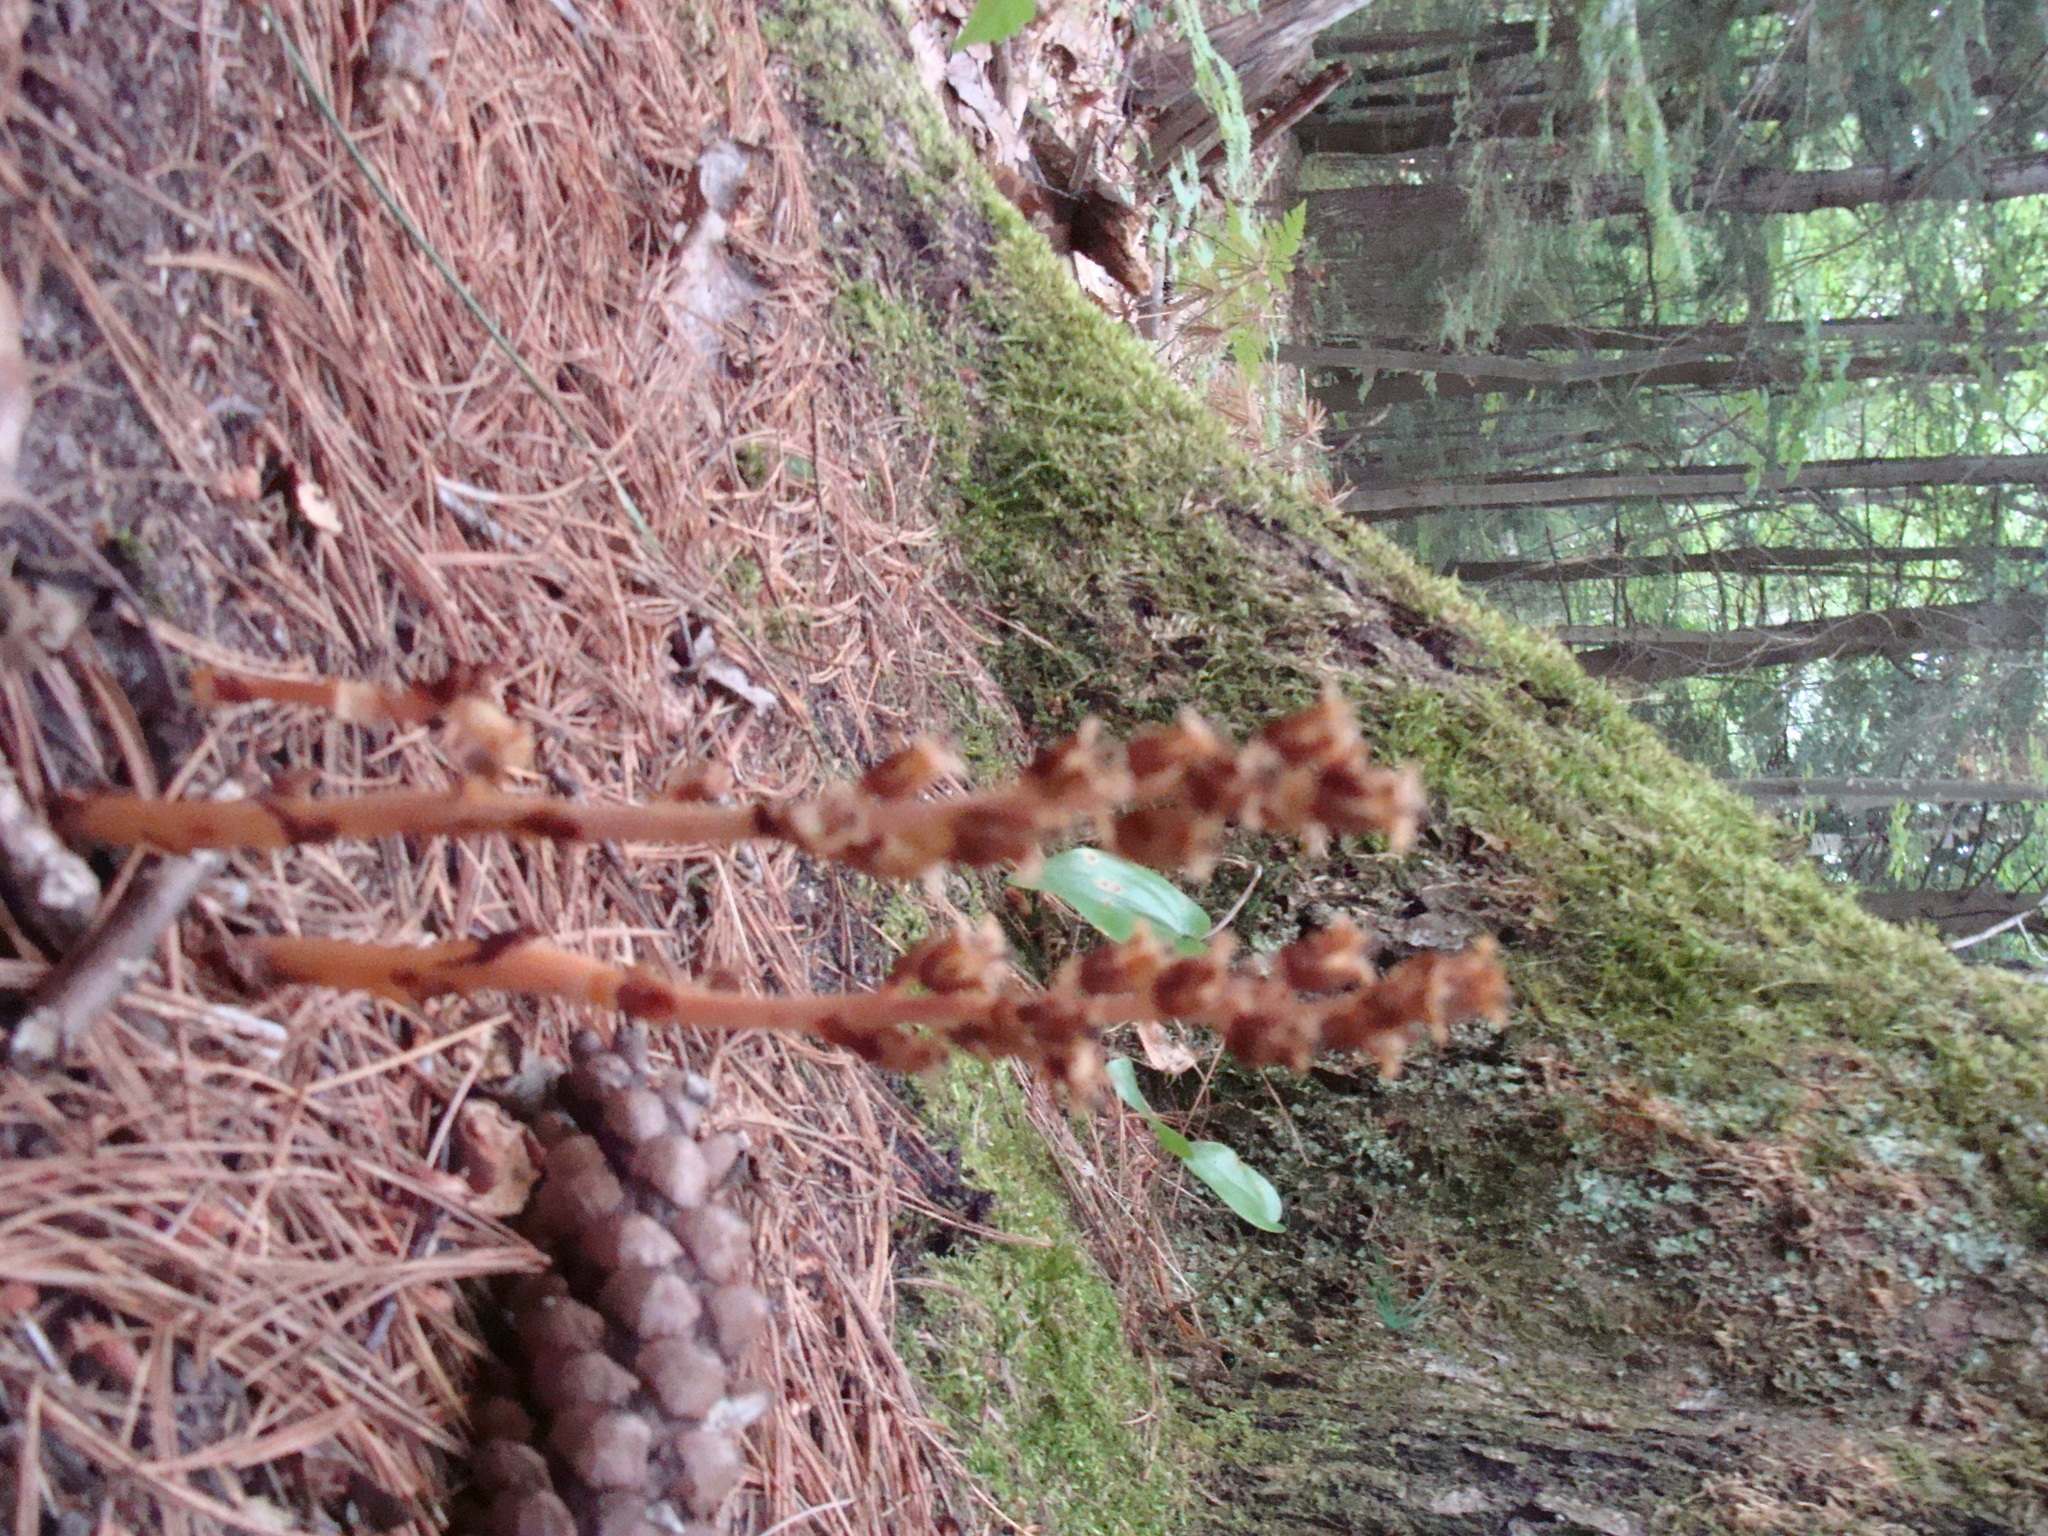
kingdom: Plantae
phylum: Tracheophyta
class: Magnoliopsida
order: Ericales
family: Ericaceae
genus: Hypopitys
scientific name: Hypopitys monotropa
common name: Yellow bird's-nest
